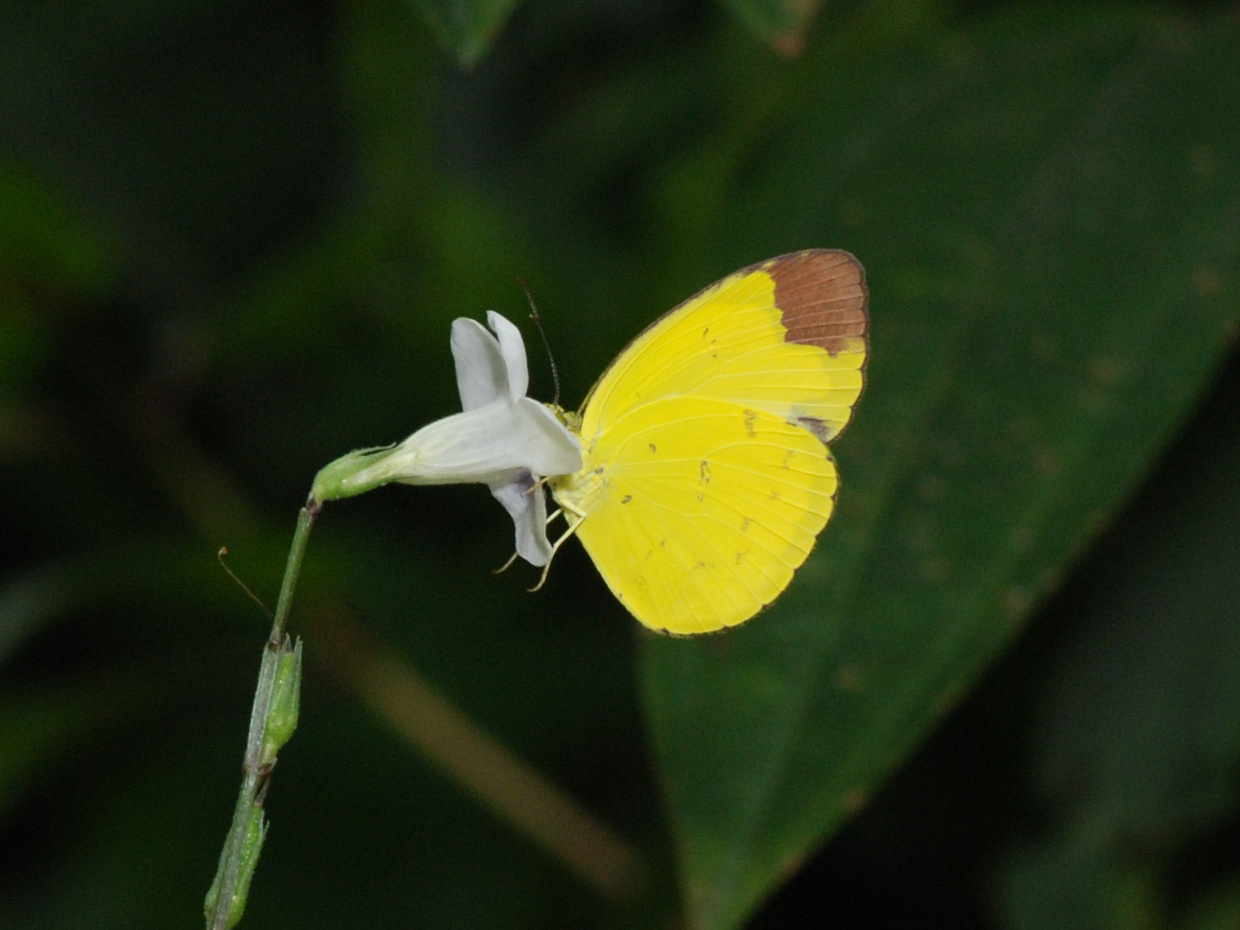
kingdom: Animalia
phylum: Arthropoda
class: Insecta
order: Lepidoptera
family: Pieridae
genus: Eurema
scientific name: Eurema sari
